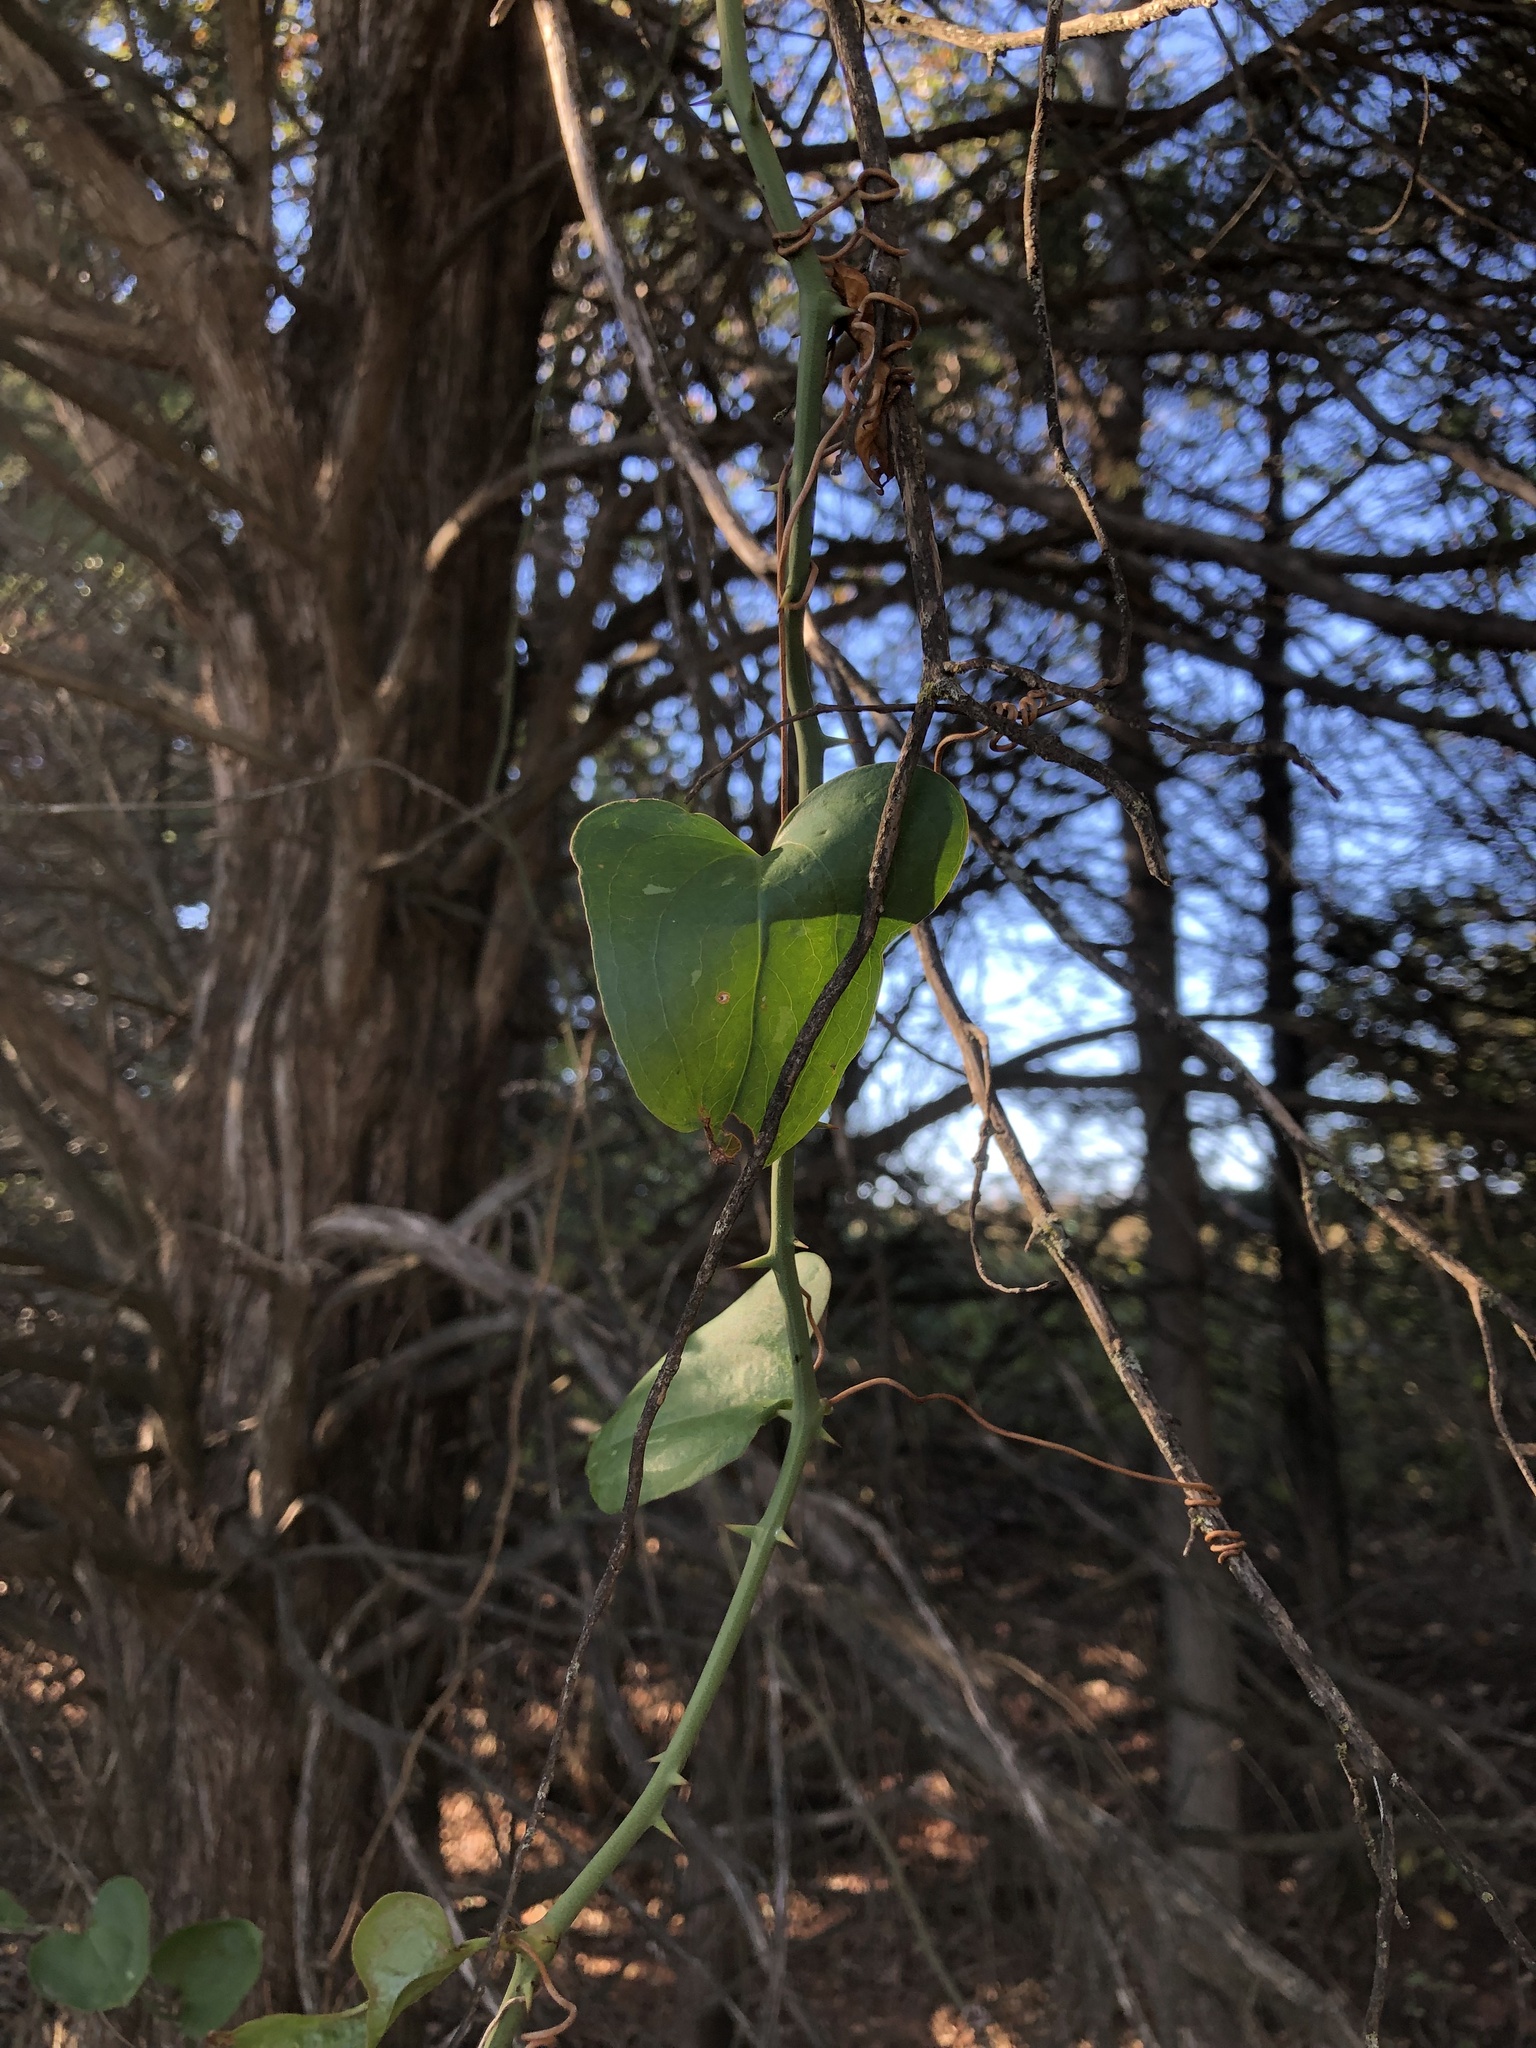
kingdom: Plantae
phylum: Tracheophyta
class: Liliopsida
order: Liliales
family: Smilacaceae
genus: Smilax
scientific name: Smilax bona-nox
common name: Catbrier
